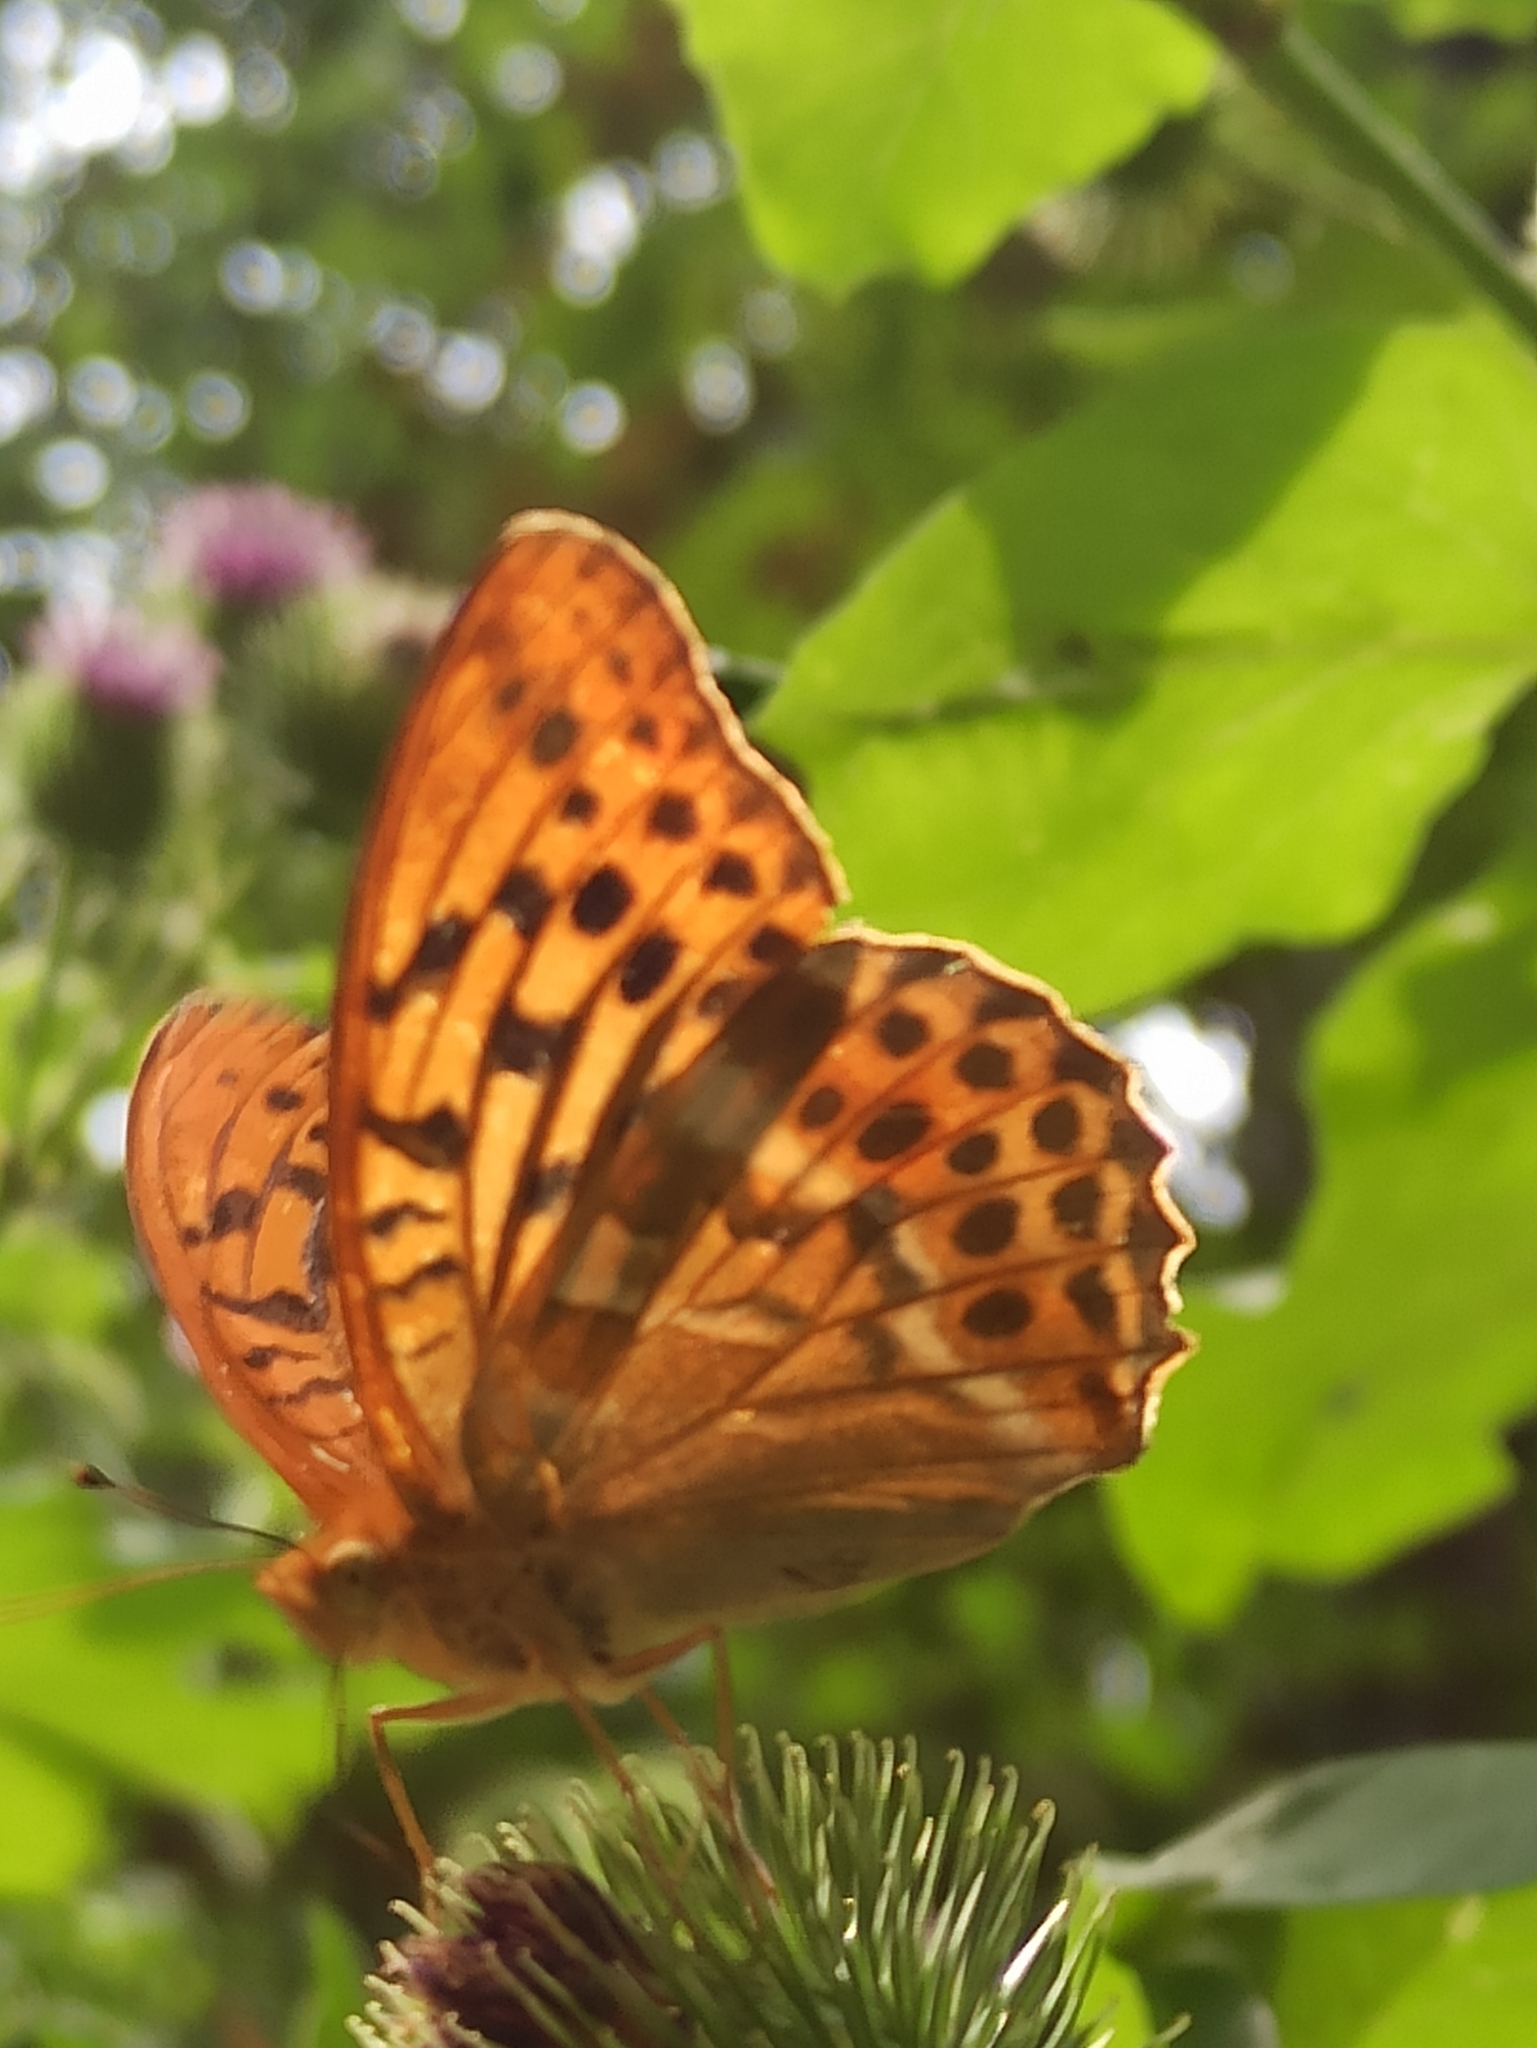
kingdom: Animalia
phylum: Arthropoda
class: Insecta
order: Lepidoptera
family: Nymphalidae
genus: Argynnis
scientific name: Argynnis paphia
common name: Silver-washed fritillary
